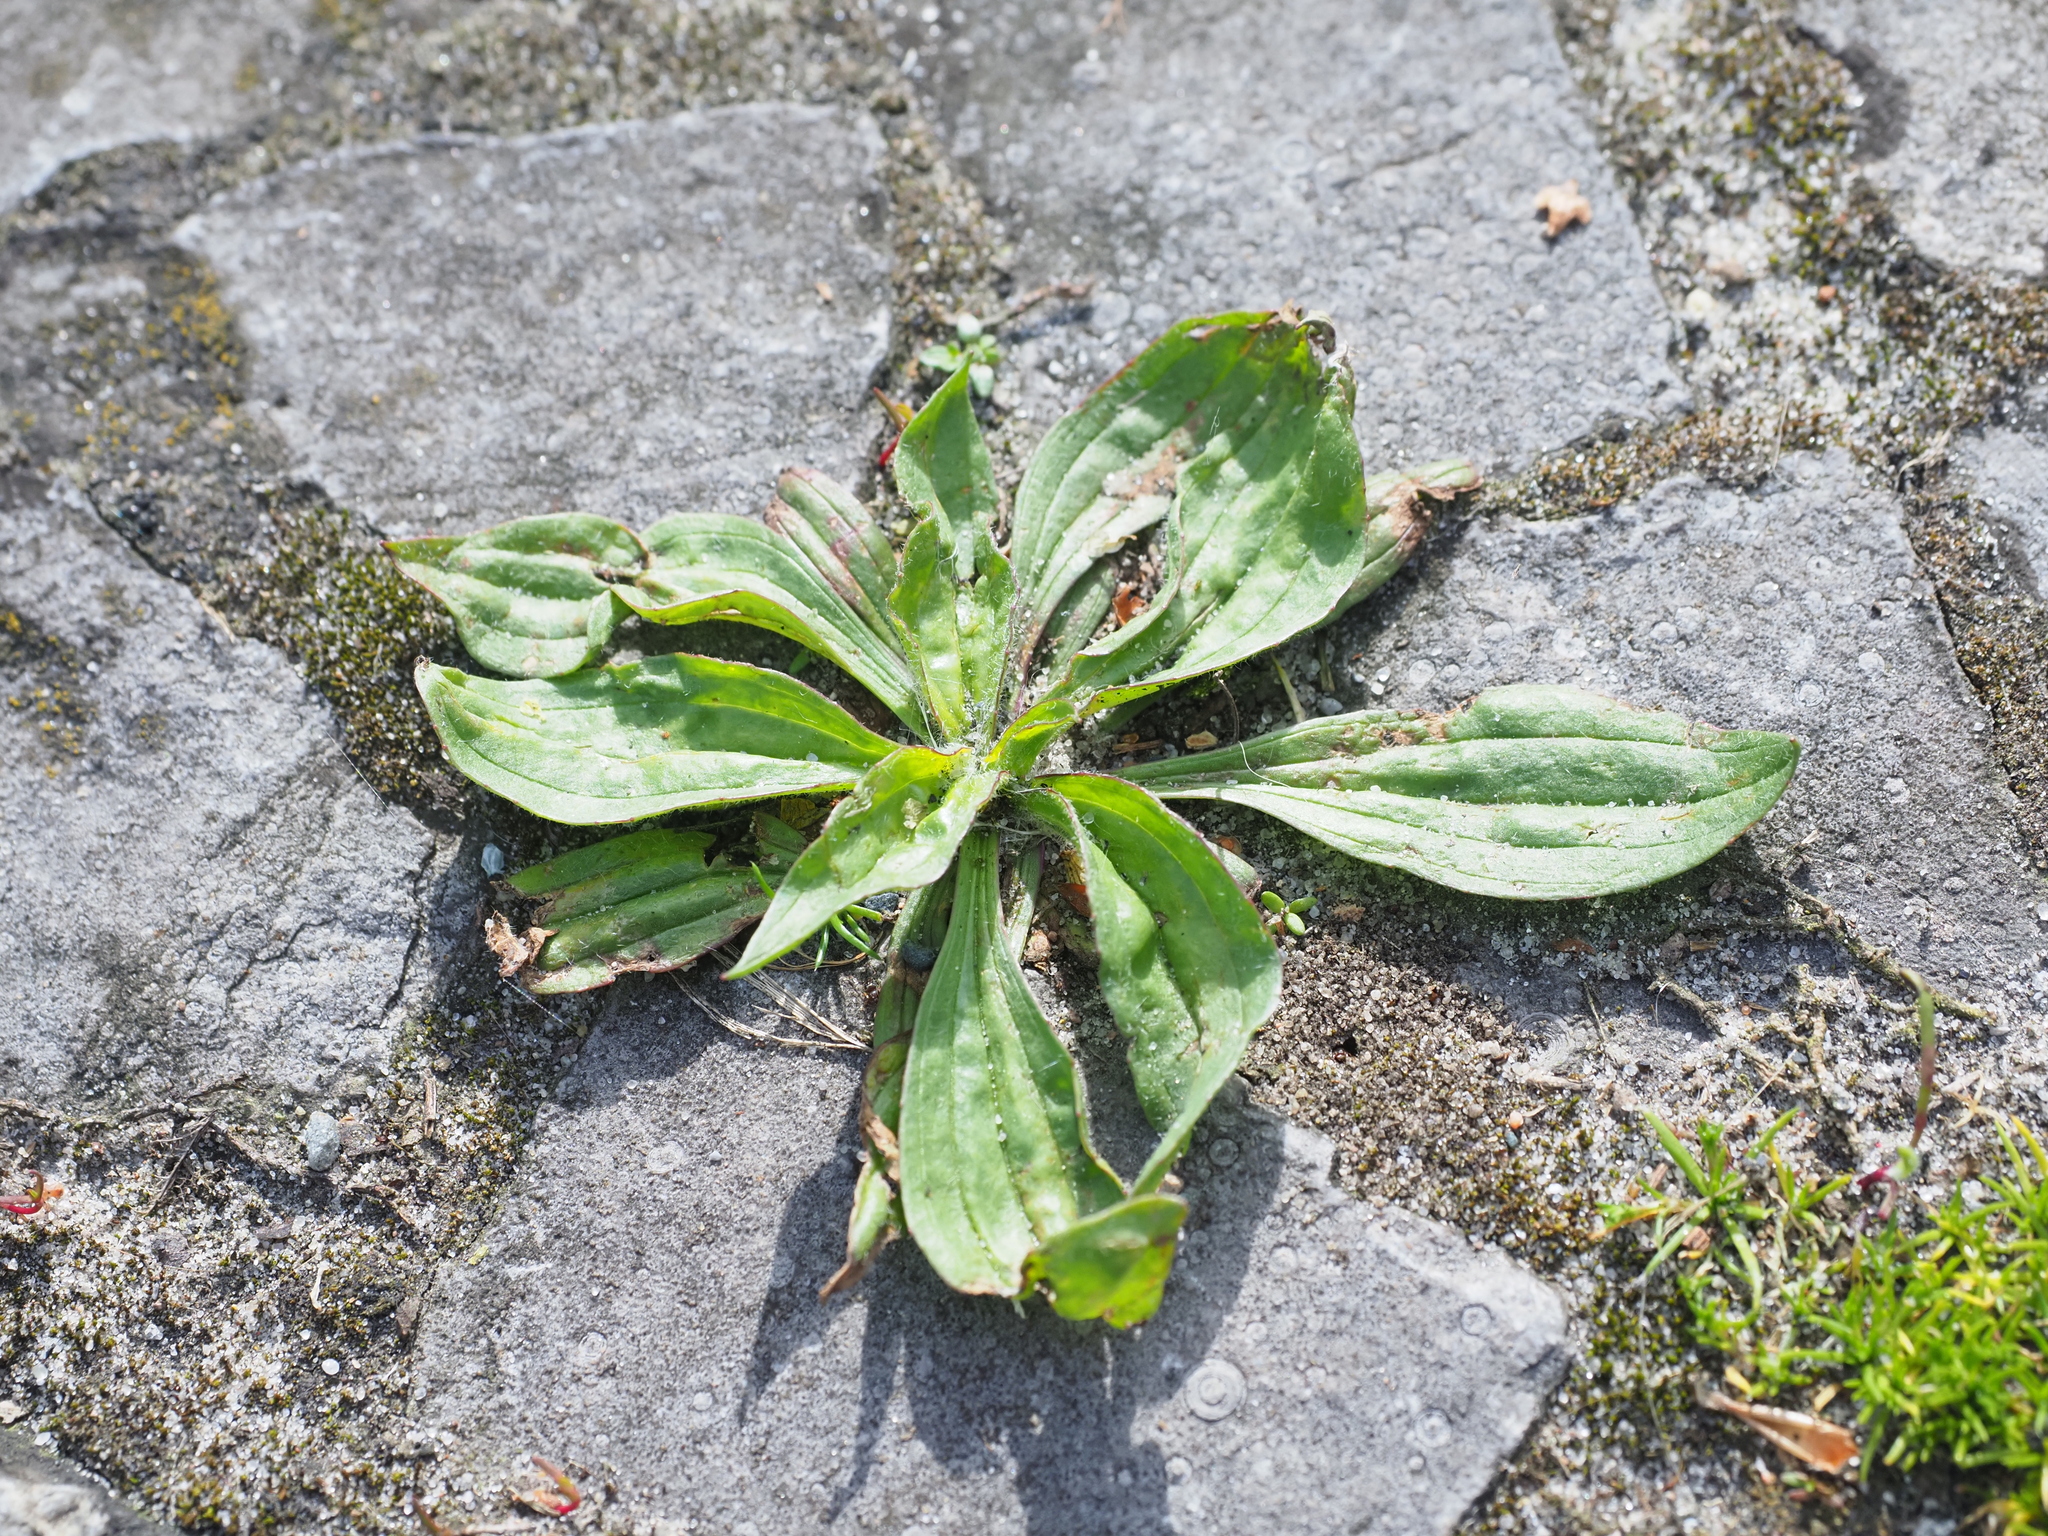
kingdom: Plantae
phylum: Tracheophyta
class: Magnoliopsida
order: Lamiales
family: Plantaginaceae
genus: Plantago
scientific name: Plantago lanceolata
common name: Ribwort plantain
